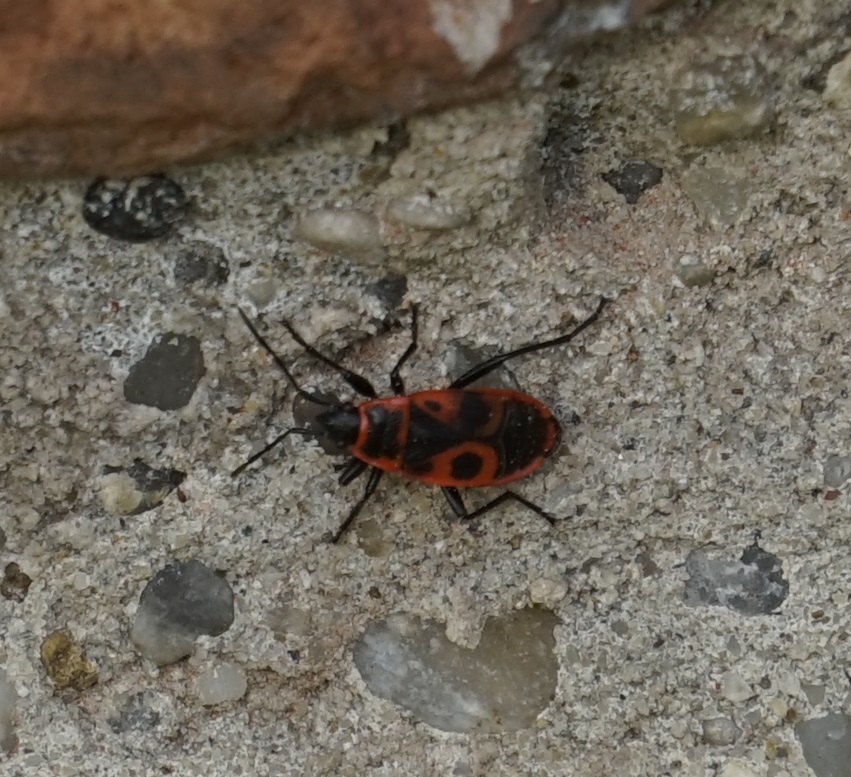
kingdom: Animalia
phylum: Arthropoda
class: Insecta
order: Hemiptera
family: Pyrrhocoridae
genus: Pyrrhocoris
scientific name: Pyrrhocoris apterus
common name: Firebug
